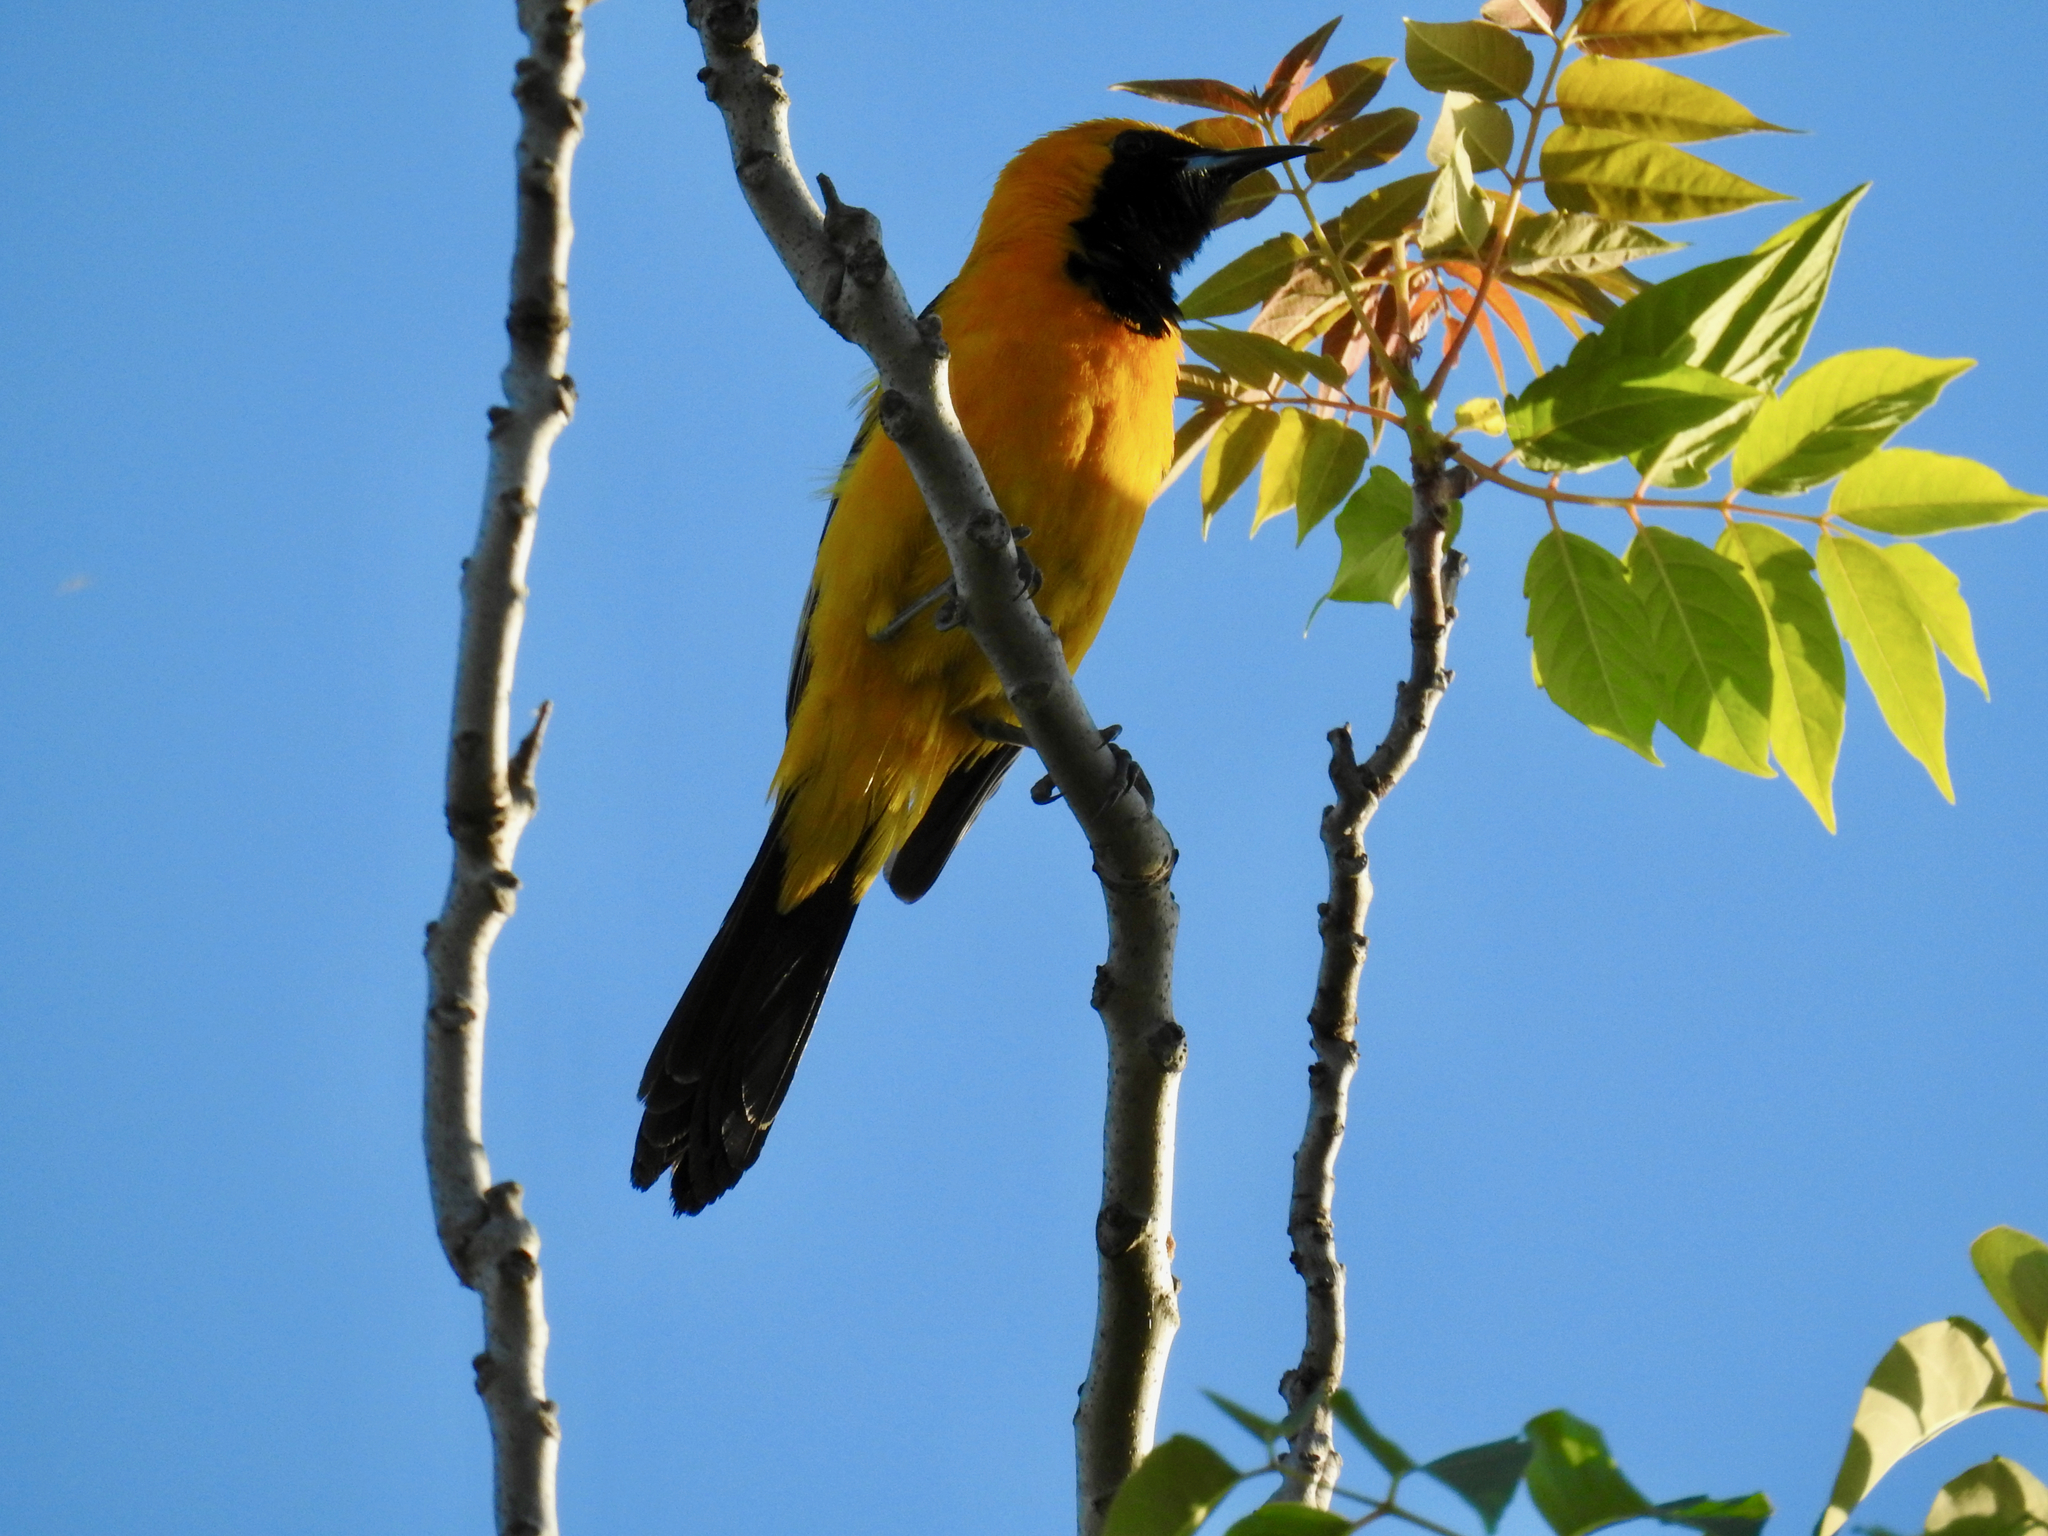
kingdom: Animalia
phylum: Chordata
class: Aves
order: Passeriformes
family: Icteridae
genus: Icterus
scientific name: Icterus cucullatus
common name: Hooded oriole
